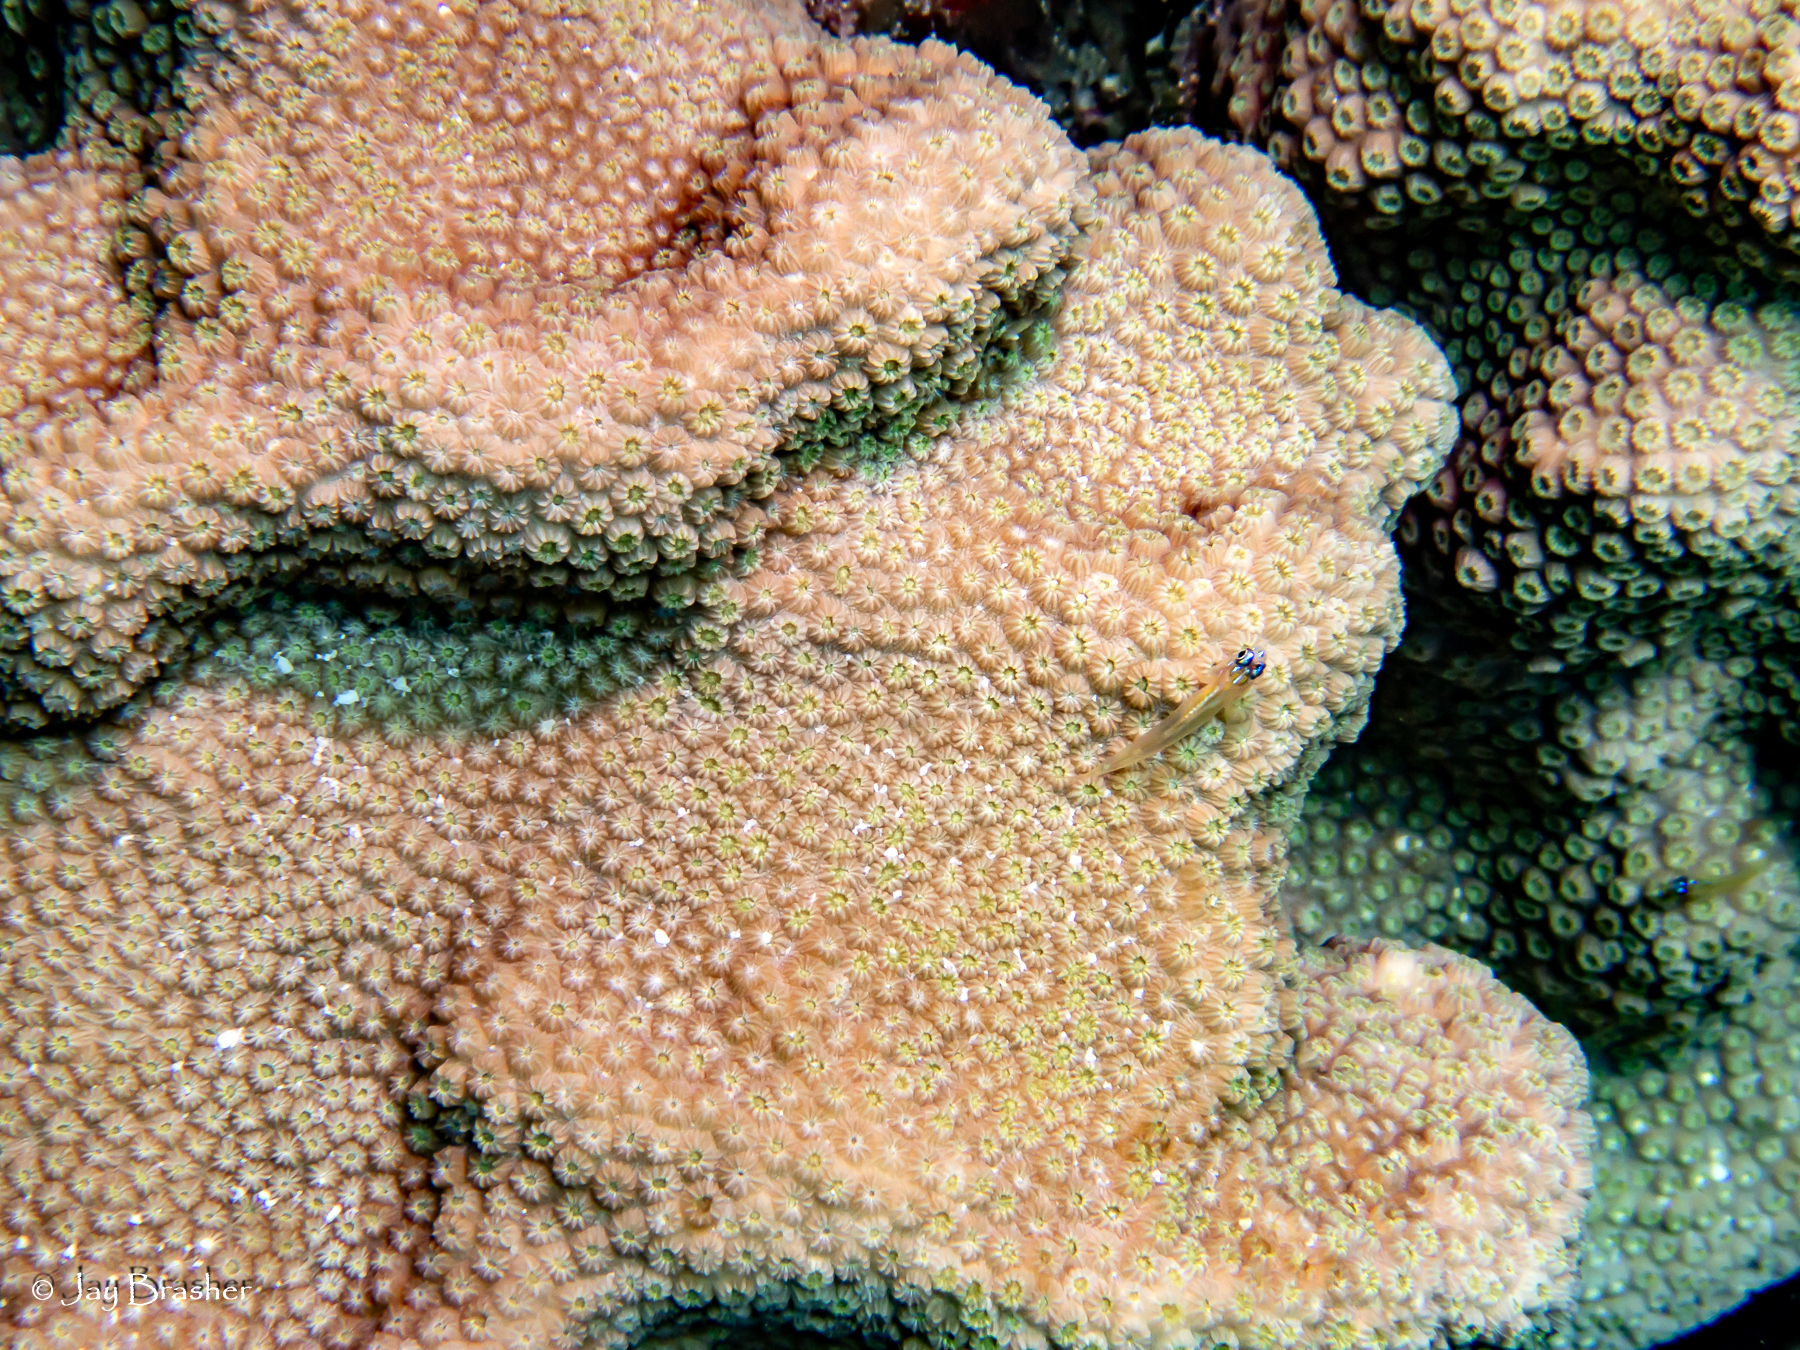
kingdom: Animalia
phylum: Chordata
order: Perciformes
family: Gobiidae
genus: Coryphopterus
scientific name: Coryphopterus lipernes
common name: Peppermint goby
